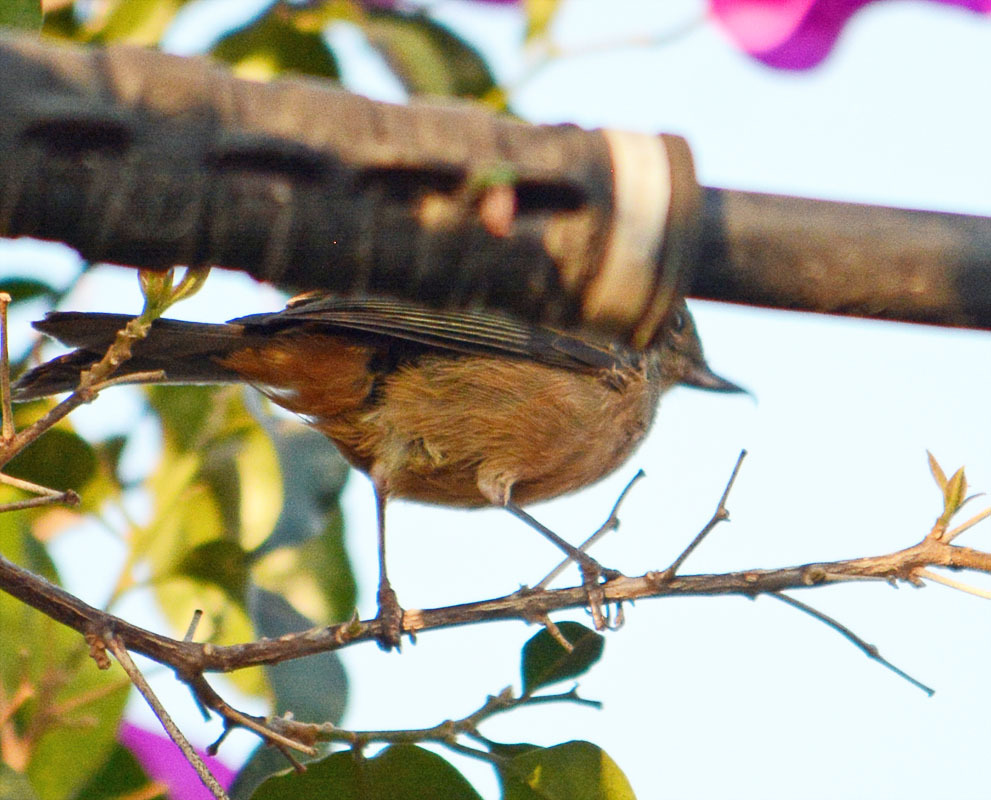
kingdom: Animalia
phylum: Chordata
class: Aves
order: Passeriformes
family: Thraupidae
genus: Diglossa
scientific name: Diglossa baritula
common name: Cinnamon-bellied flowerpiercer
